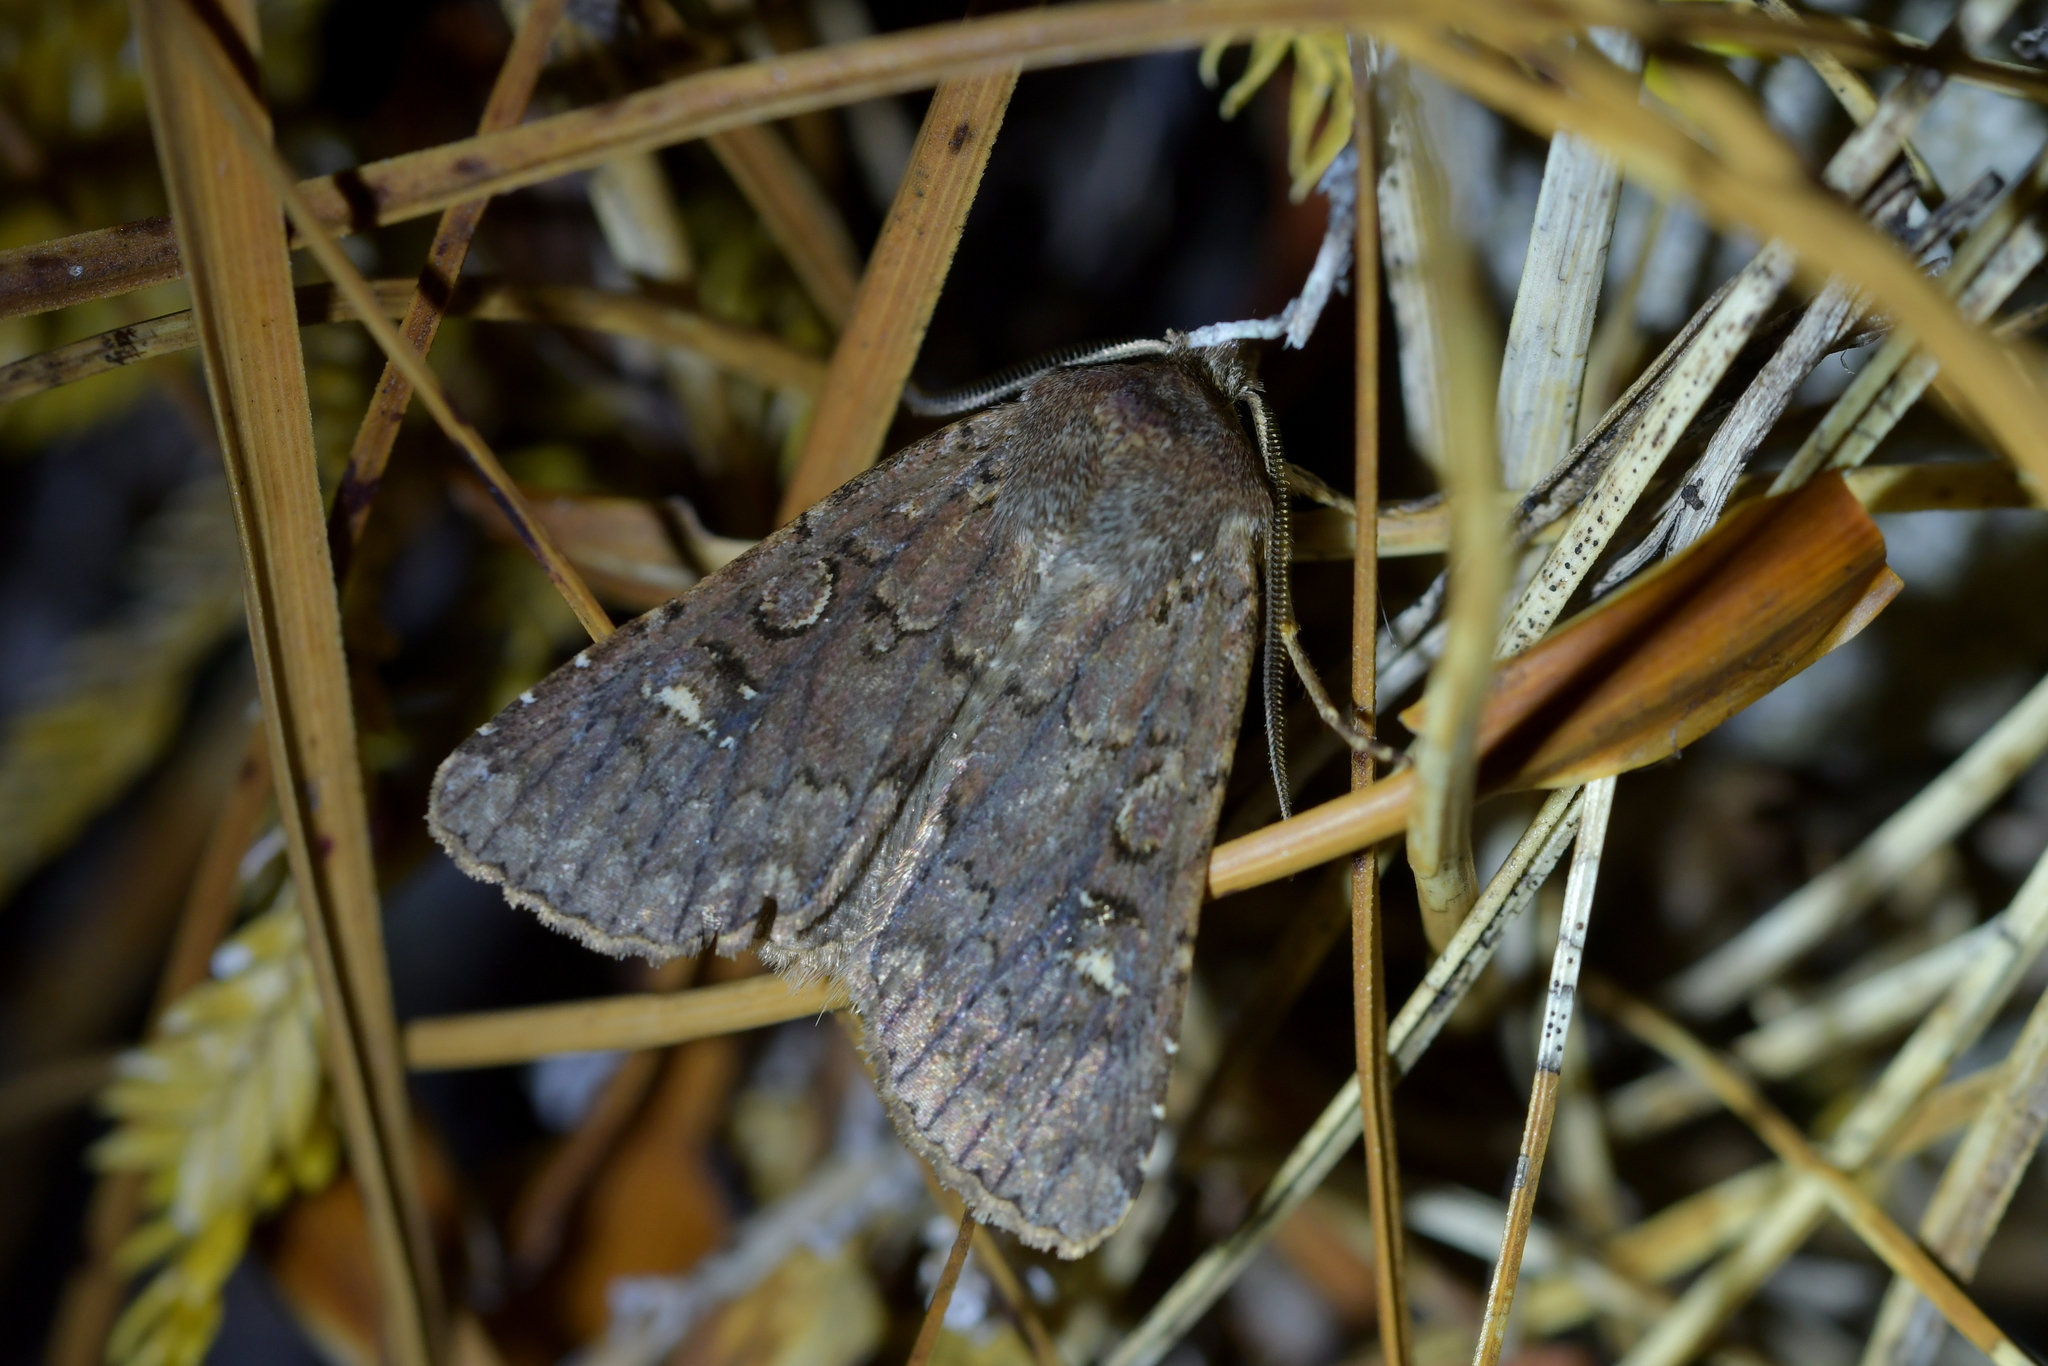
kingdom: Animalia
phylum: Arthropoda
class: Insecta
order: Lepidoptera
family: Noctuidae
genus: Ichneutica
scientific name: Ichneutica agorastis
